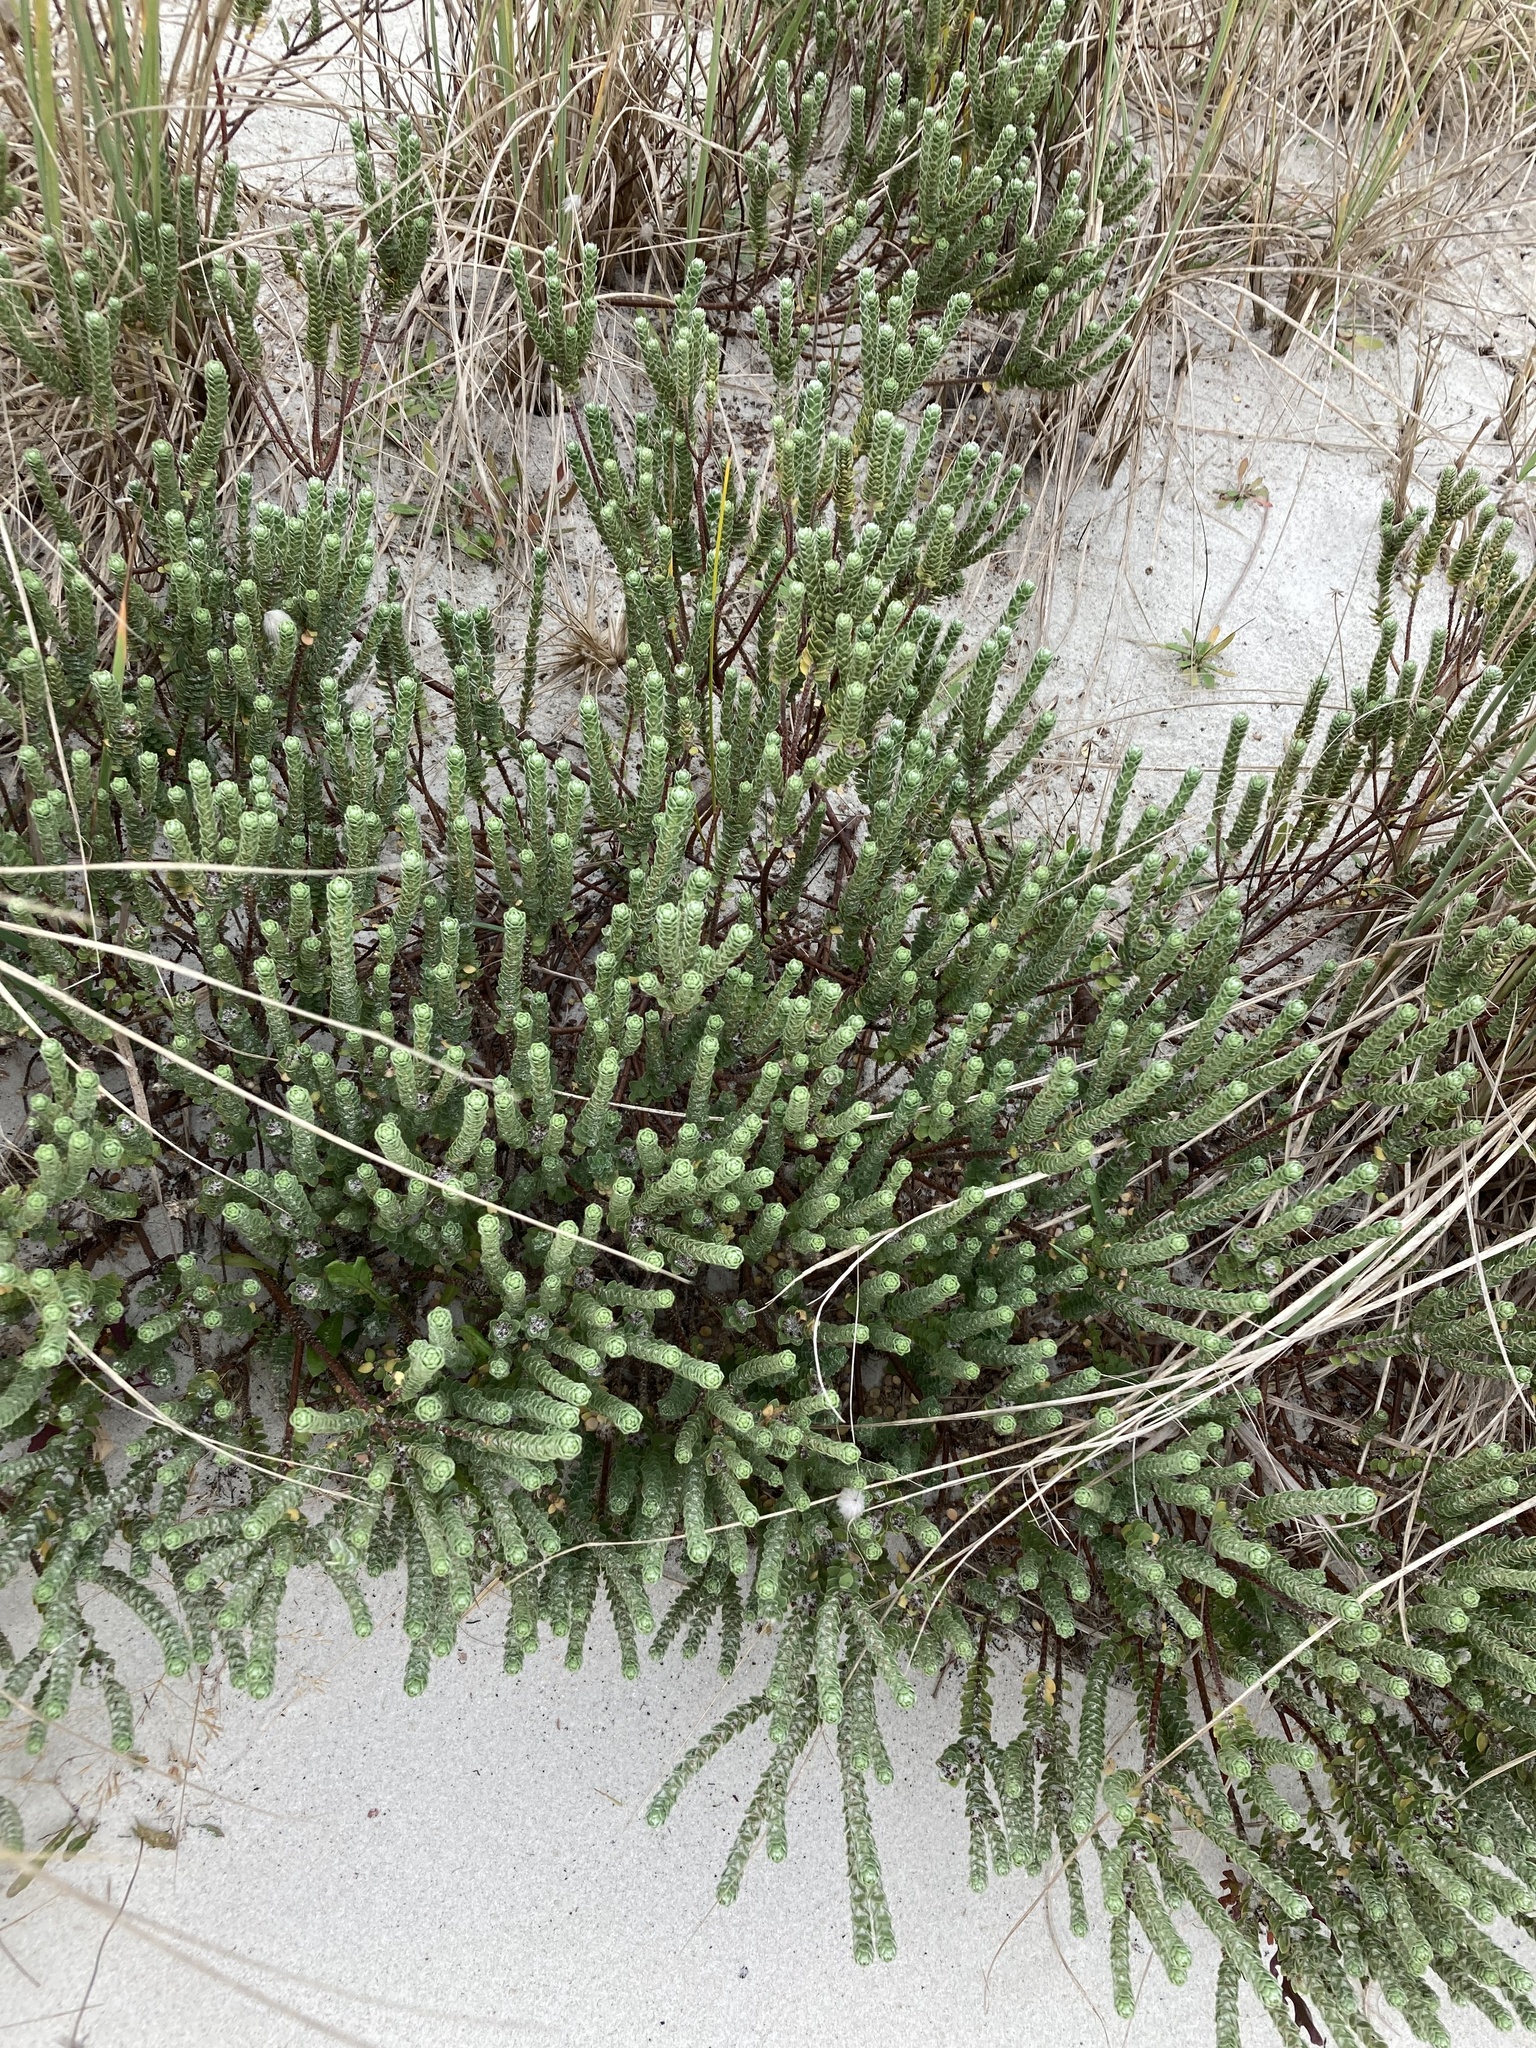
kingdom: Plantae
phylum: Tracheophyta
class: Magnoliopsida
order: Malvales
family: Thymelaeaceae
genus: Pimelea
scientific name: Pimelea villosa
